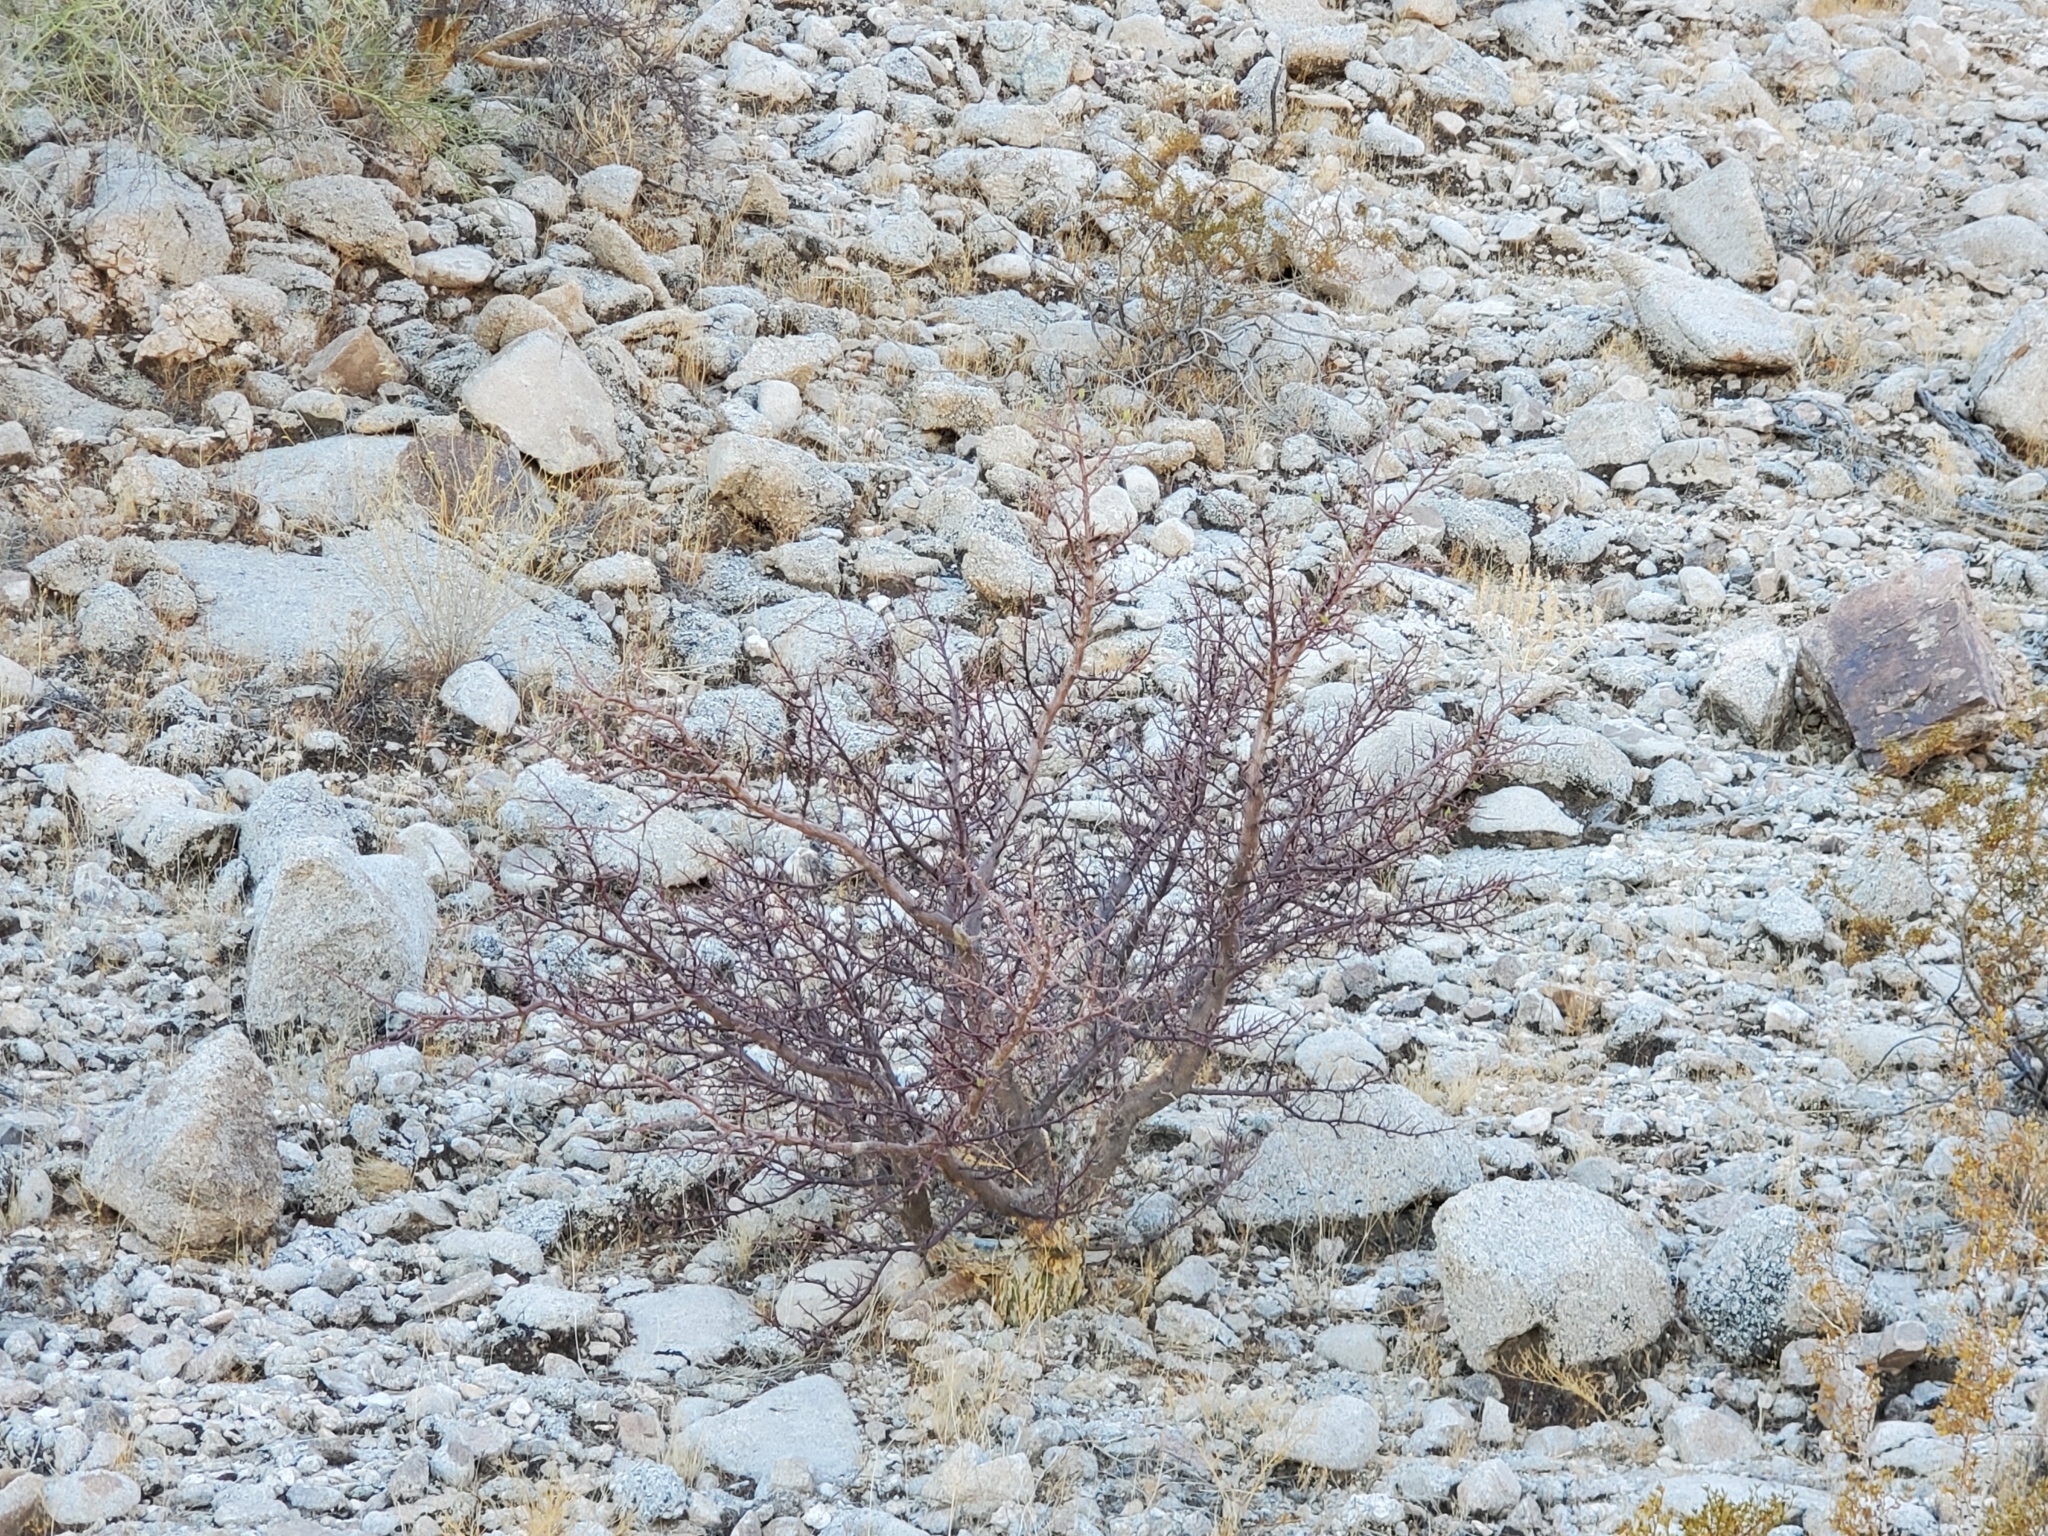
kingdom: Plantae
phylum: Tracheophyta
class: Magnoliopsida
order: Sapindales
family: Burseraceae
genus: Bursera
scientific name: Bursera microphylla
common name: Elephant tree
